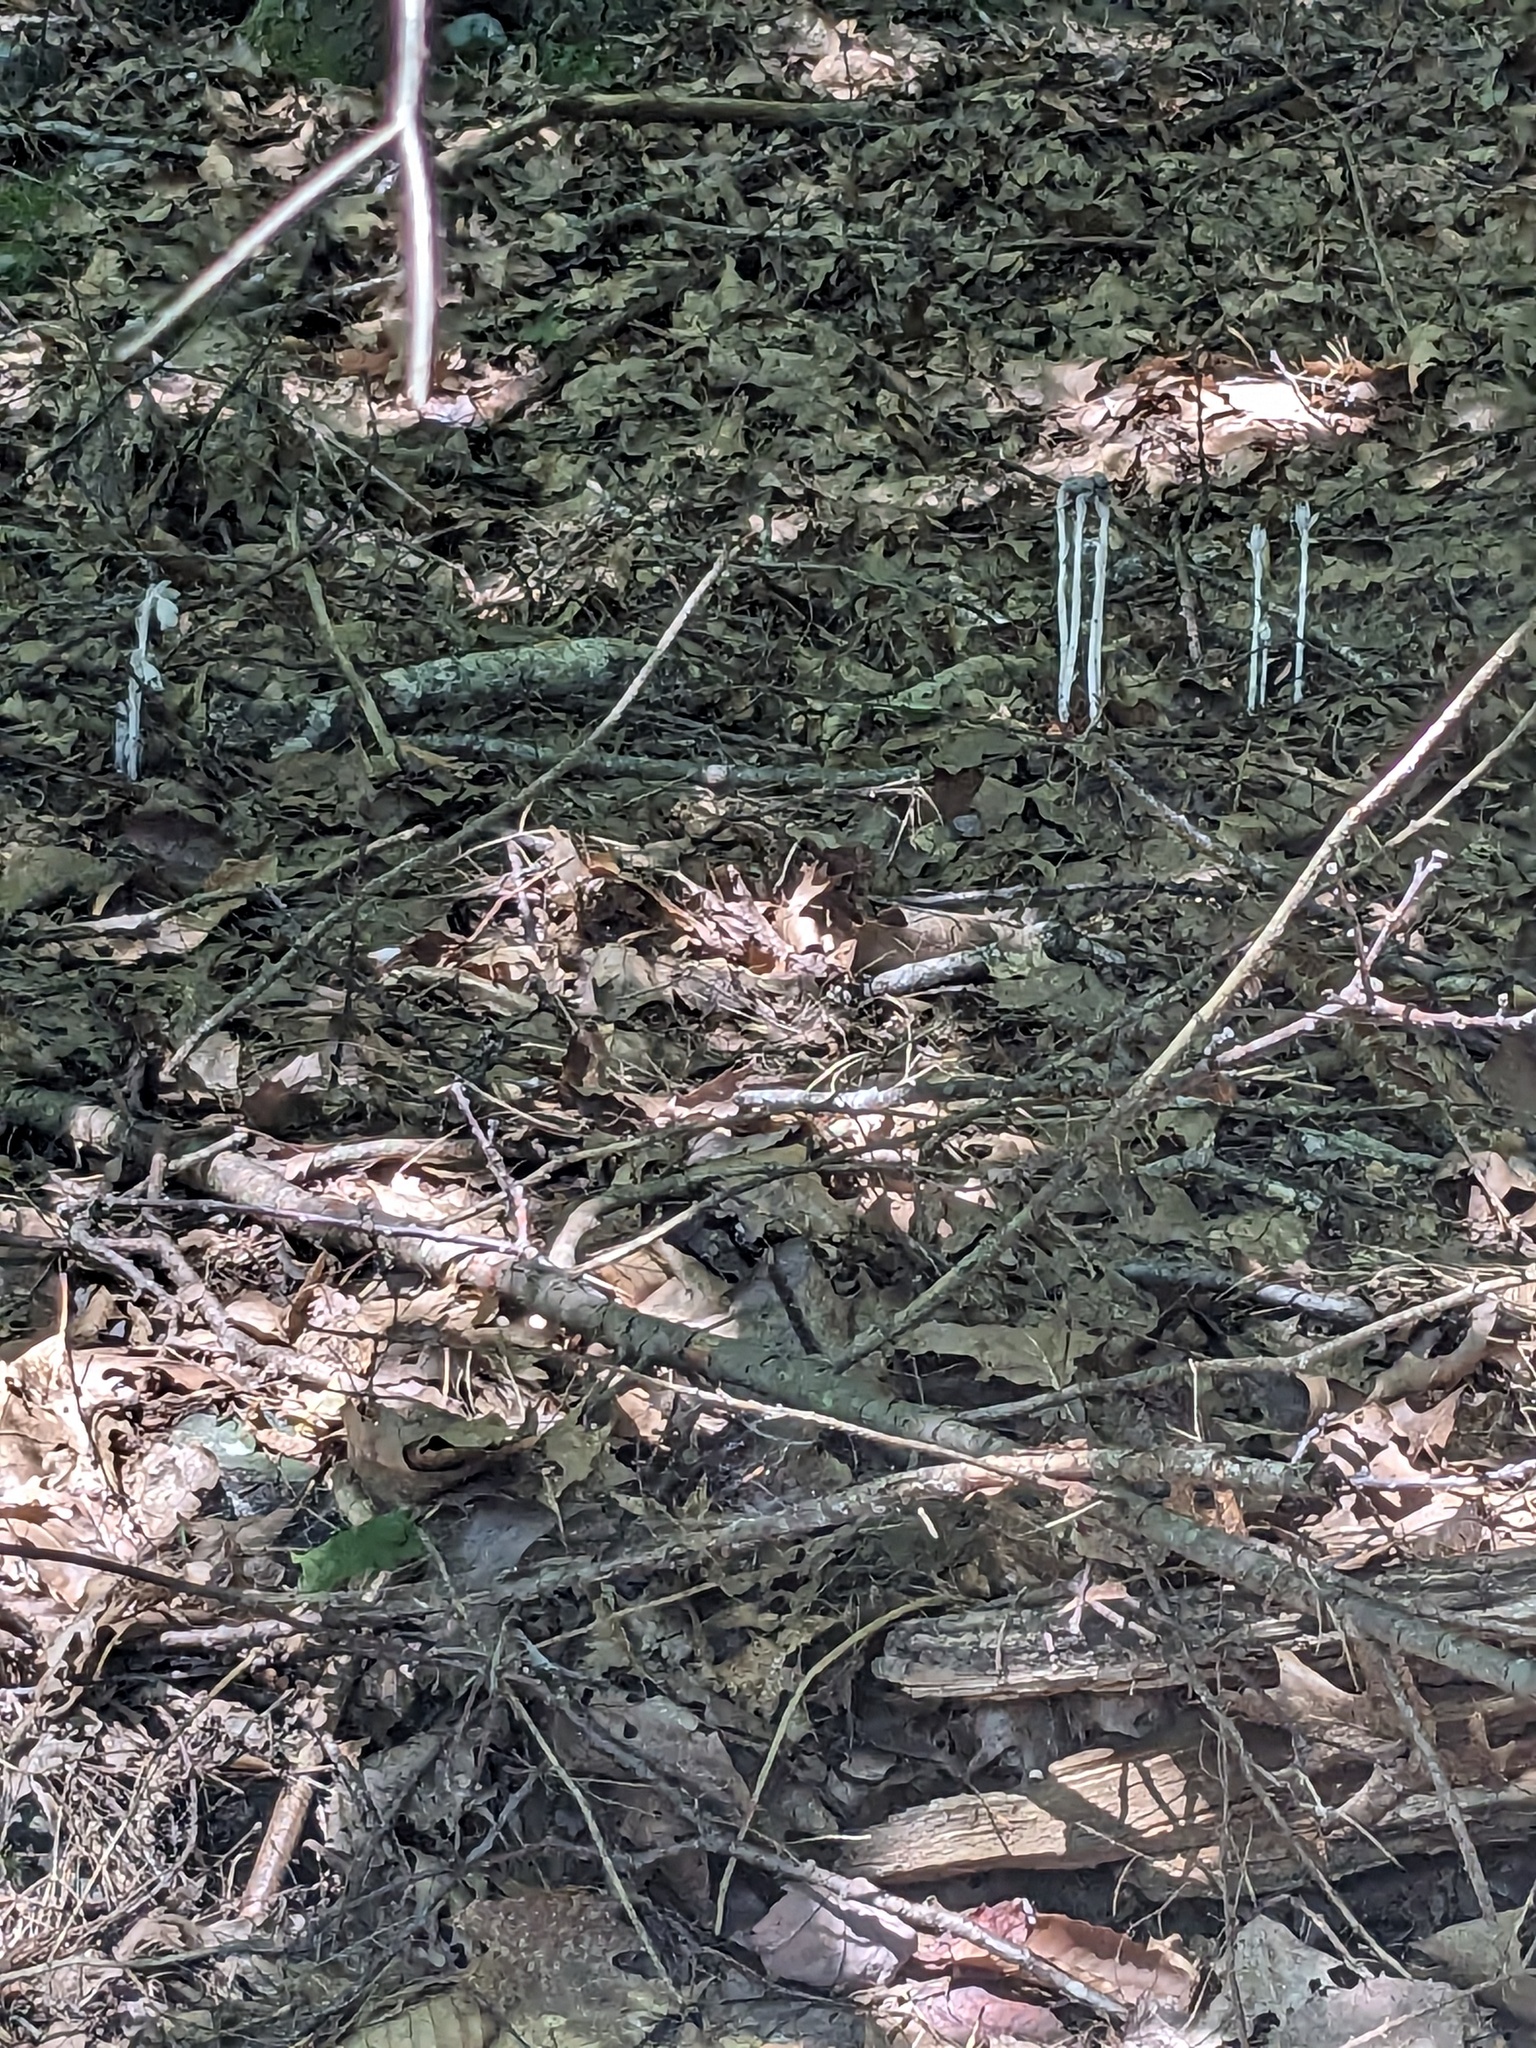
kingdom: Plantae
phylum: Tracheophyta
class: Magnoliopsida
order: Ericales
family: Ericaceae
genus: Monotropa
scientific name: Monotropa uniflora
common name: Convulsion root
